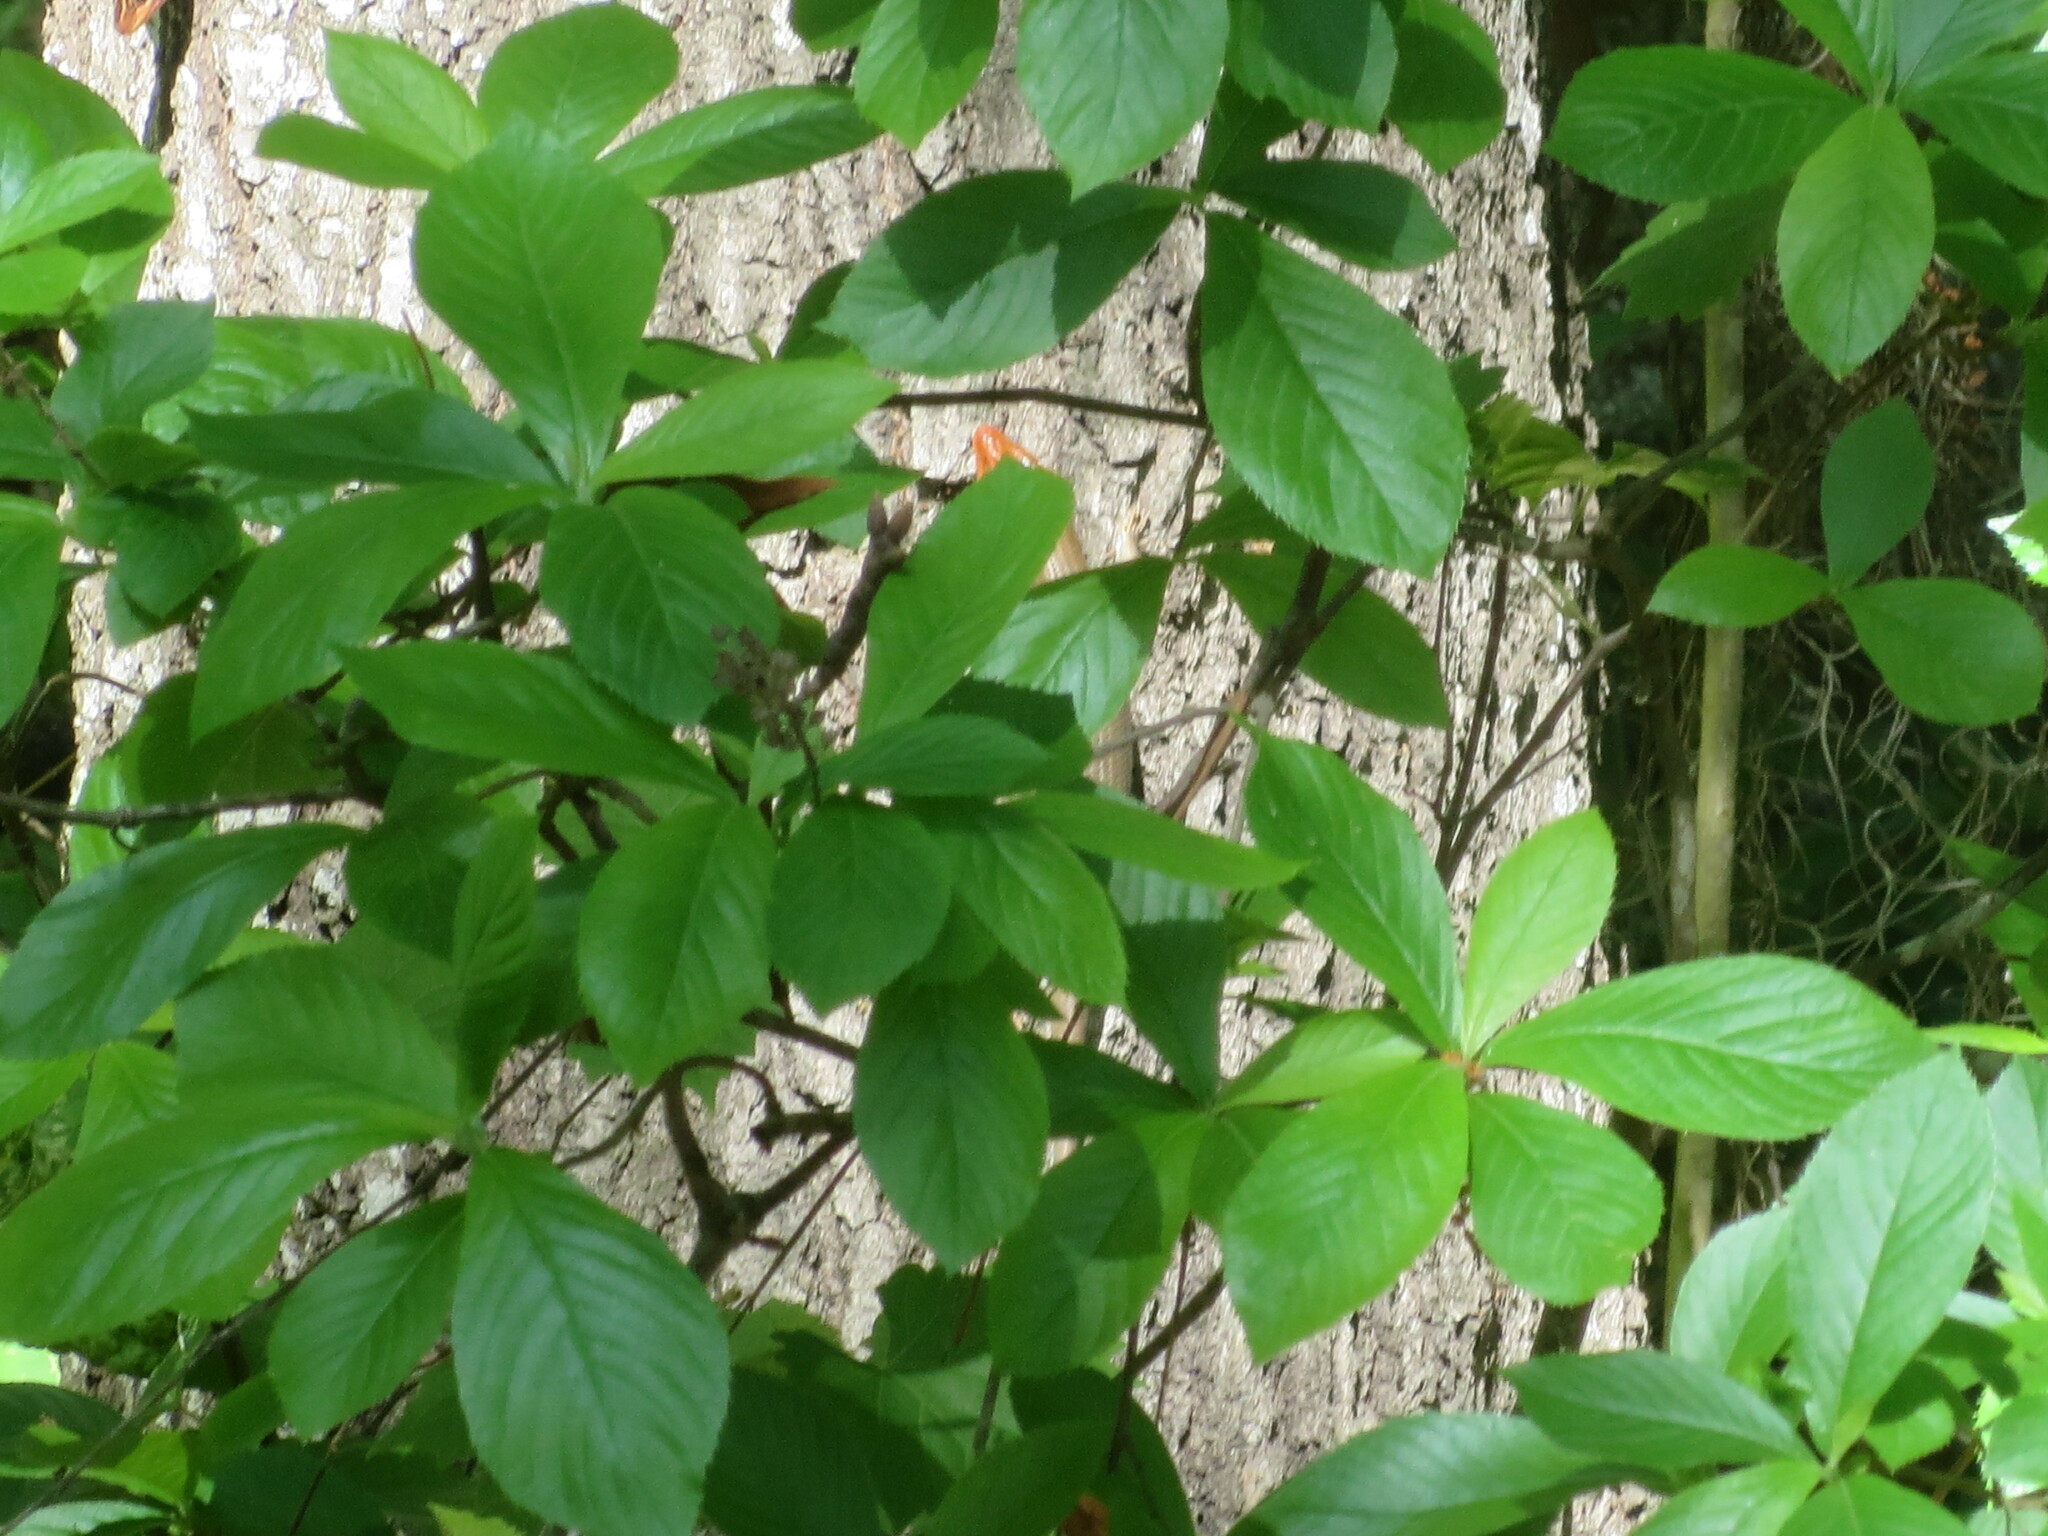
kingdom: Animalia
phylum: Chordata
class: Squamata
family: Scincidae
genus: Plestiodon
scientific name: Plestiodon laticeps
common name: Broadhead skink
